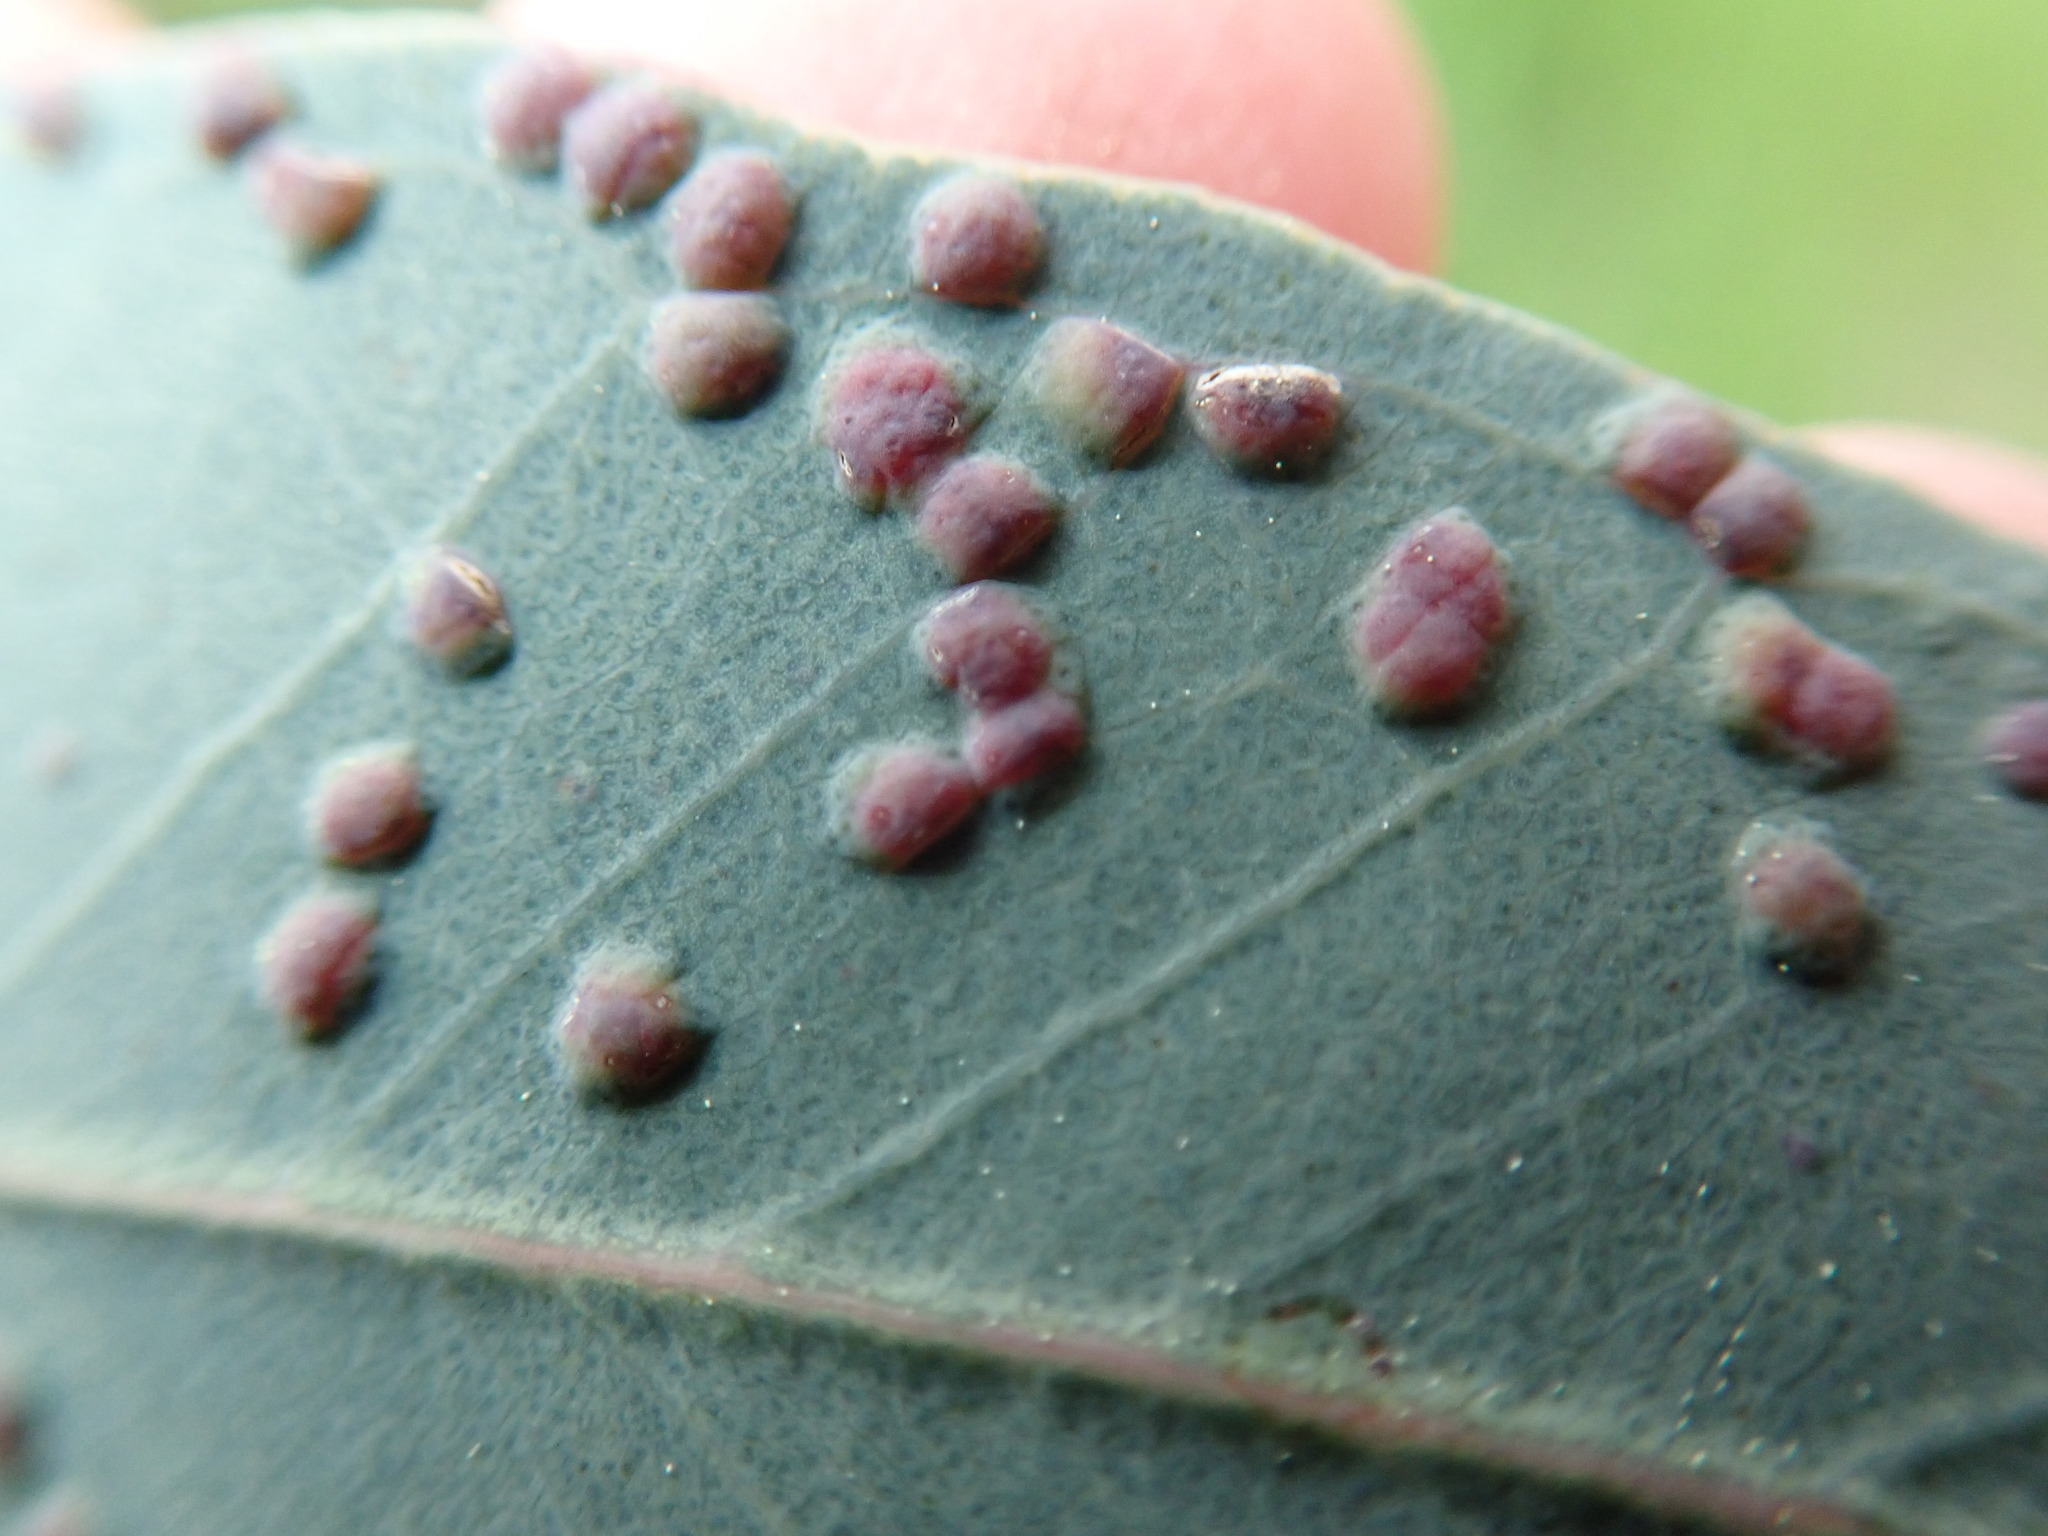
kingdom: Animalia
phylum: Arthropoda
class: Insecta
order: Hymenoptera
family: Eulophidae
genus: Ophelimus
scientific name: Ophelimus maskelli
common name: Gall wasp
